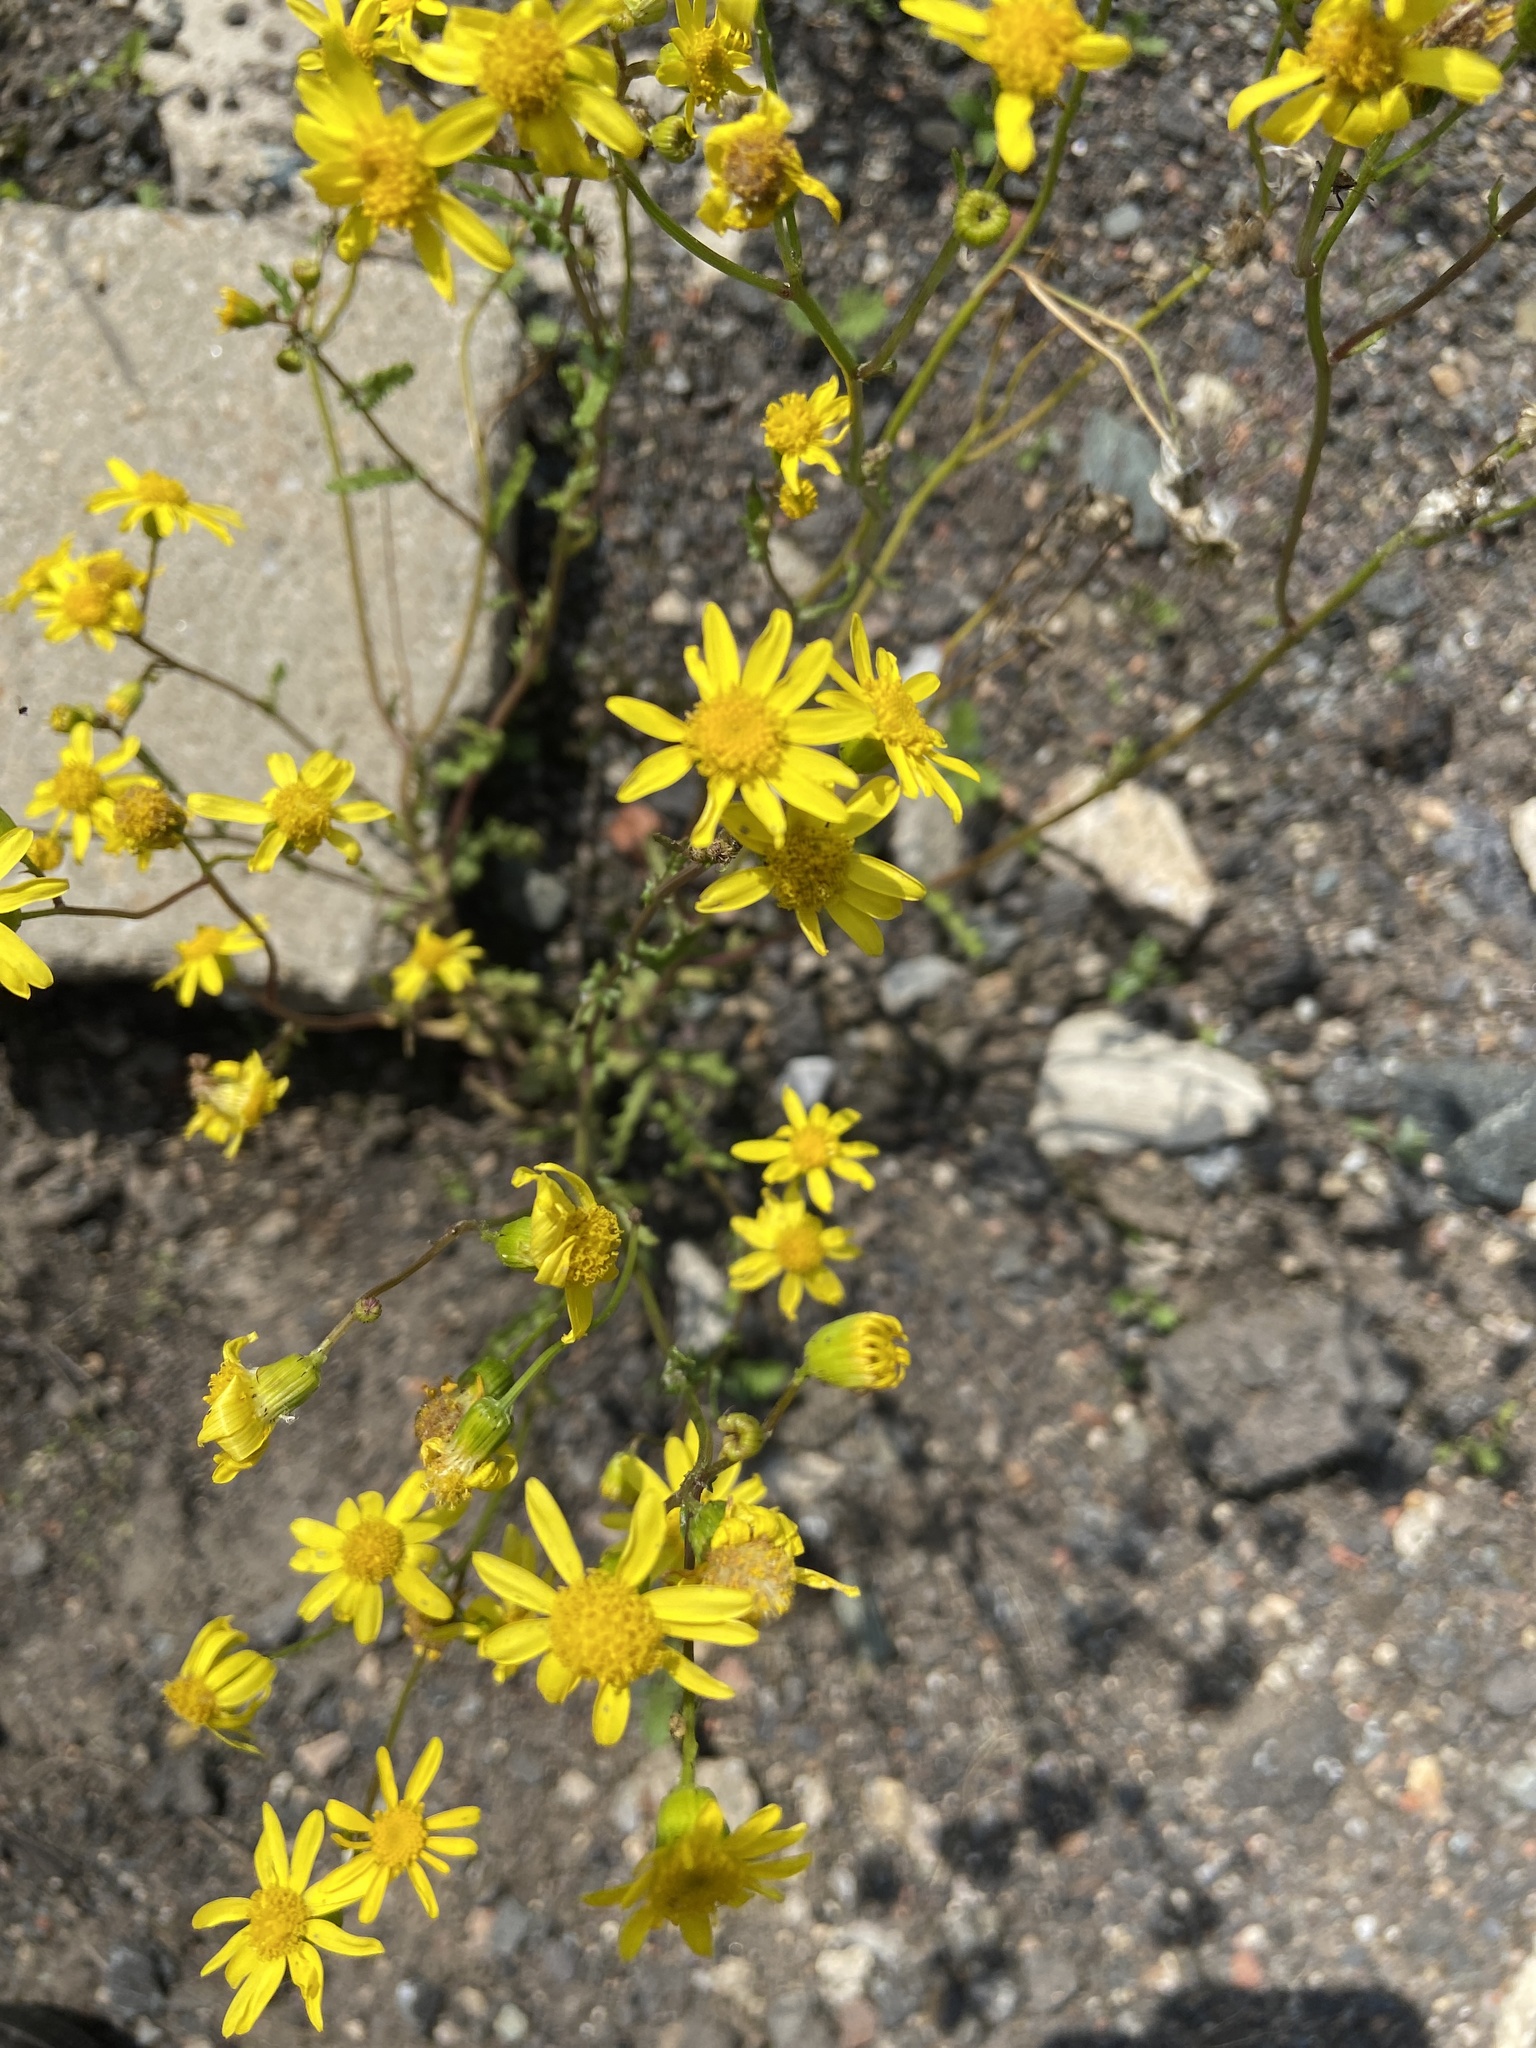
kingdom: Plantae
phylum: Tracheophyta
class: Magnoliopsida
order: Asterales
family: Asteraceae
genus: Senecio
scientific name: Senecio vernalis
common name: Eastern groundsel
